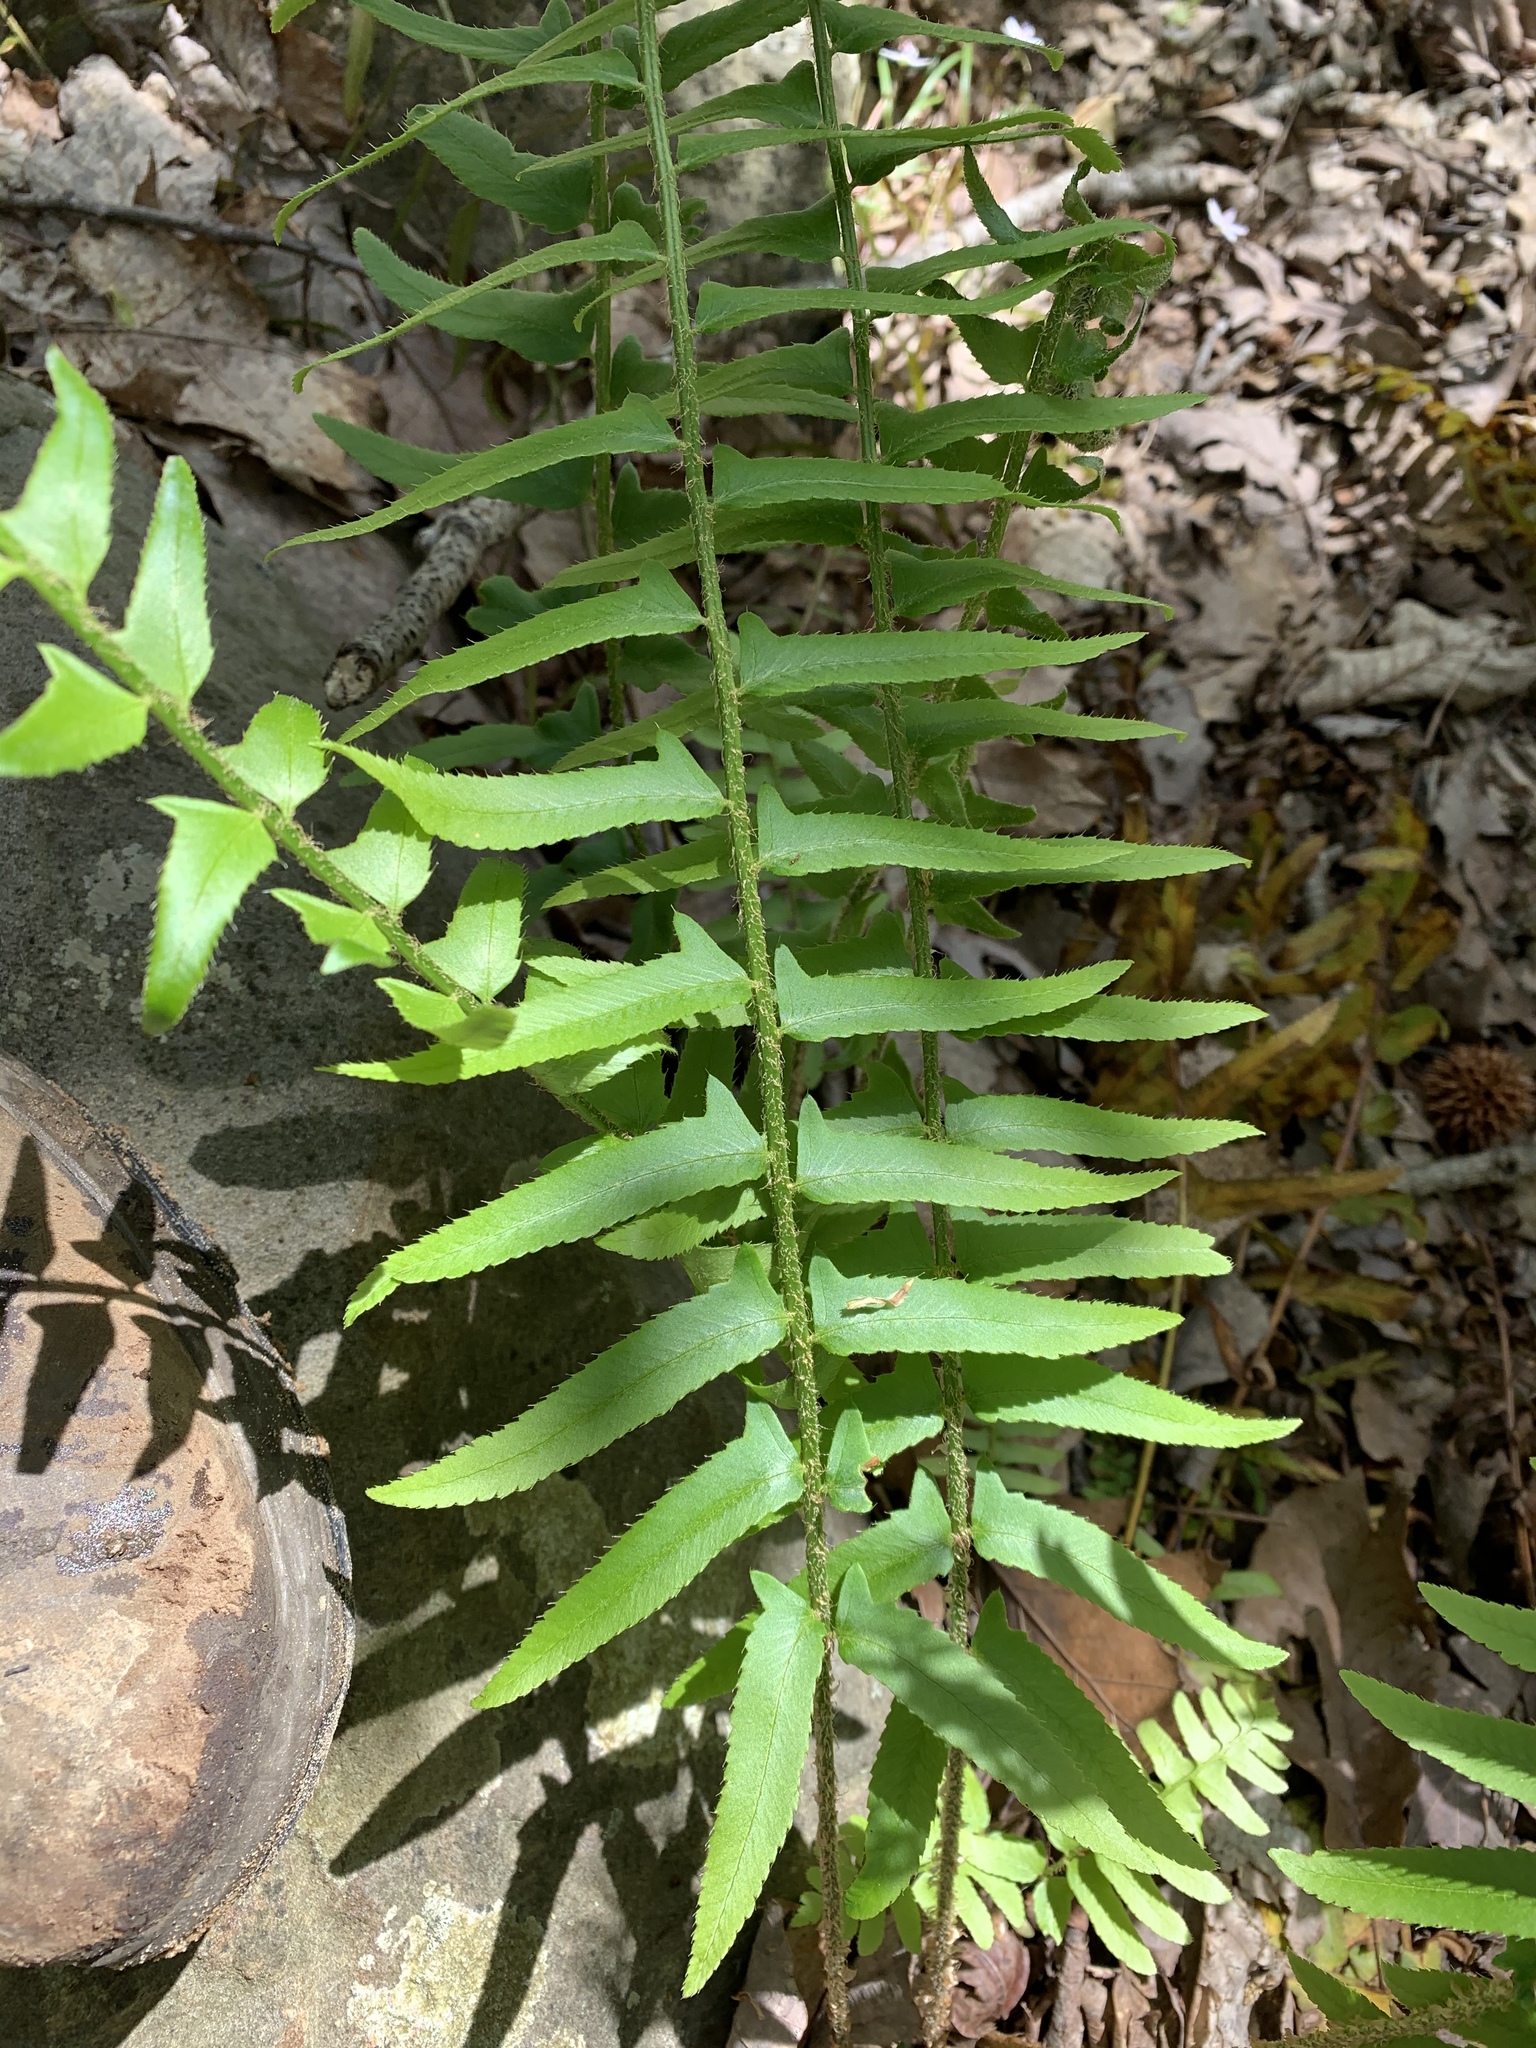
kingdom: Plantae
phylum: Tracheophyta
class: Polypodiopsida
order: Polypodiales
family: Dryopteridaceae
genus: Polystichum
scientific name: Polystichum acrostichoides
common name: Christmas fern
